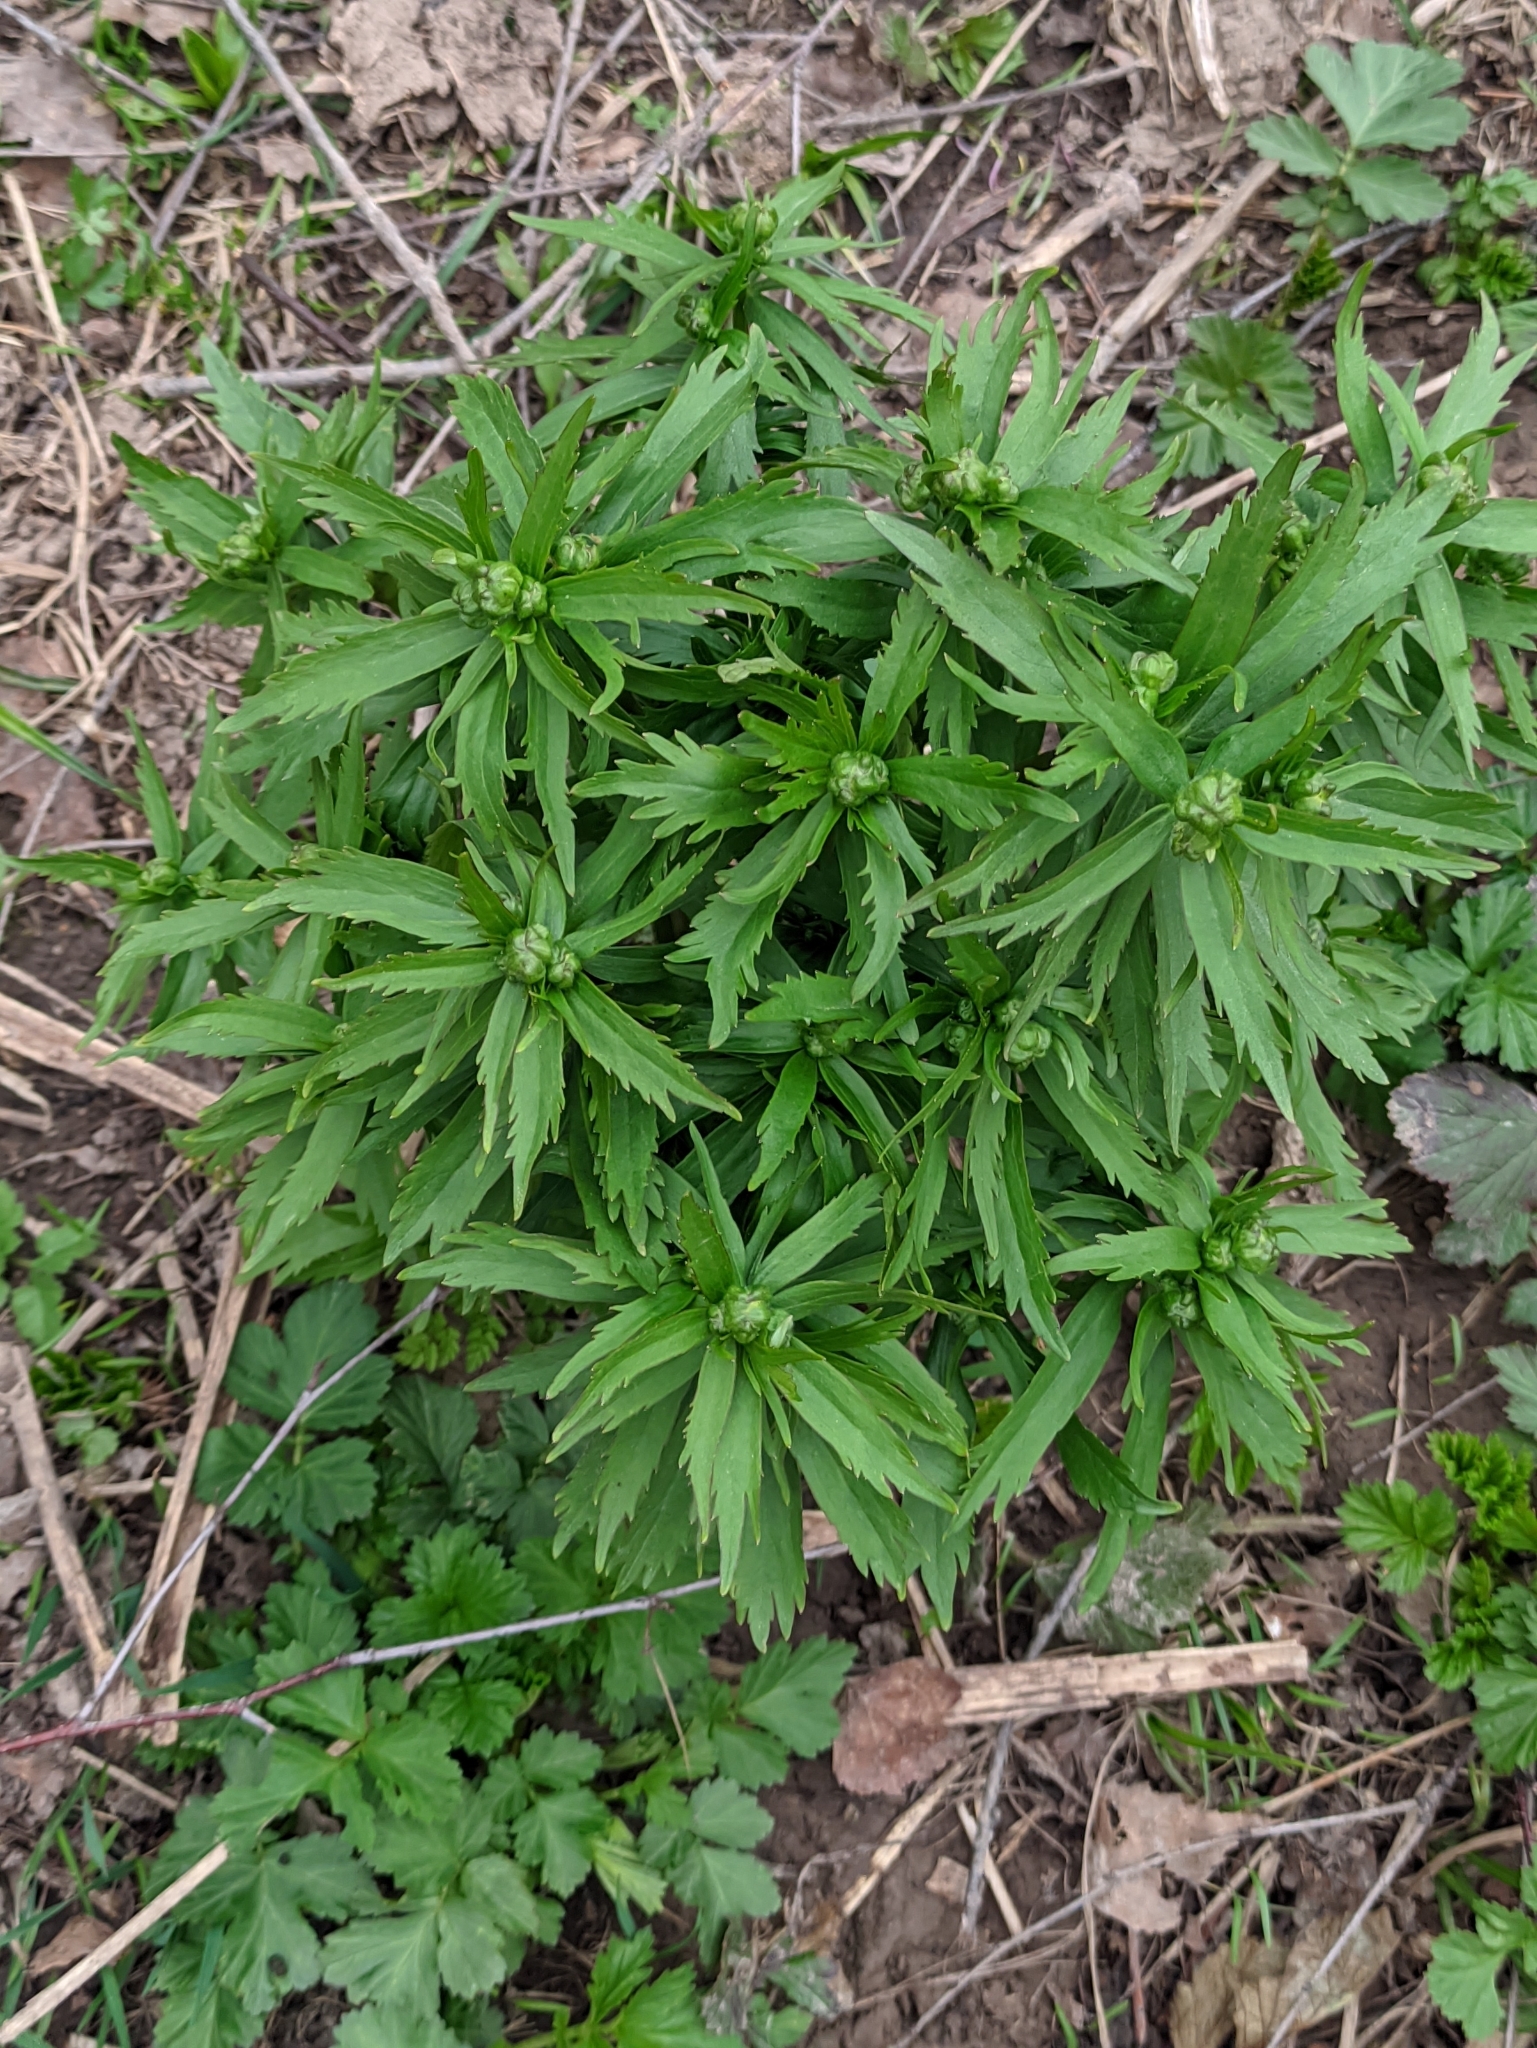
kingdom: Plantae
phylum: Tracheophyta
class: Magnoliopsida
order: Ranunculales
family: Ranunculaceae
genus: Ranunculus
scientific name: Ranunculus cassubicus
